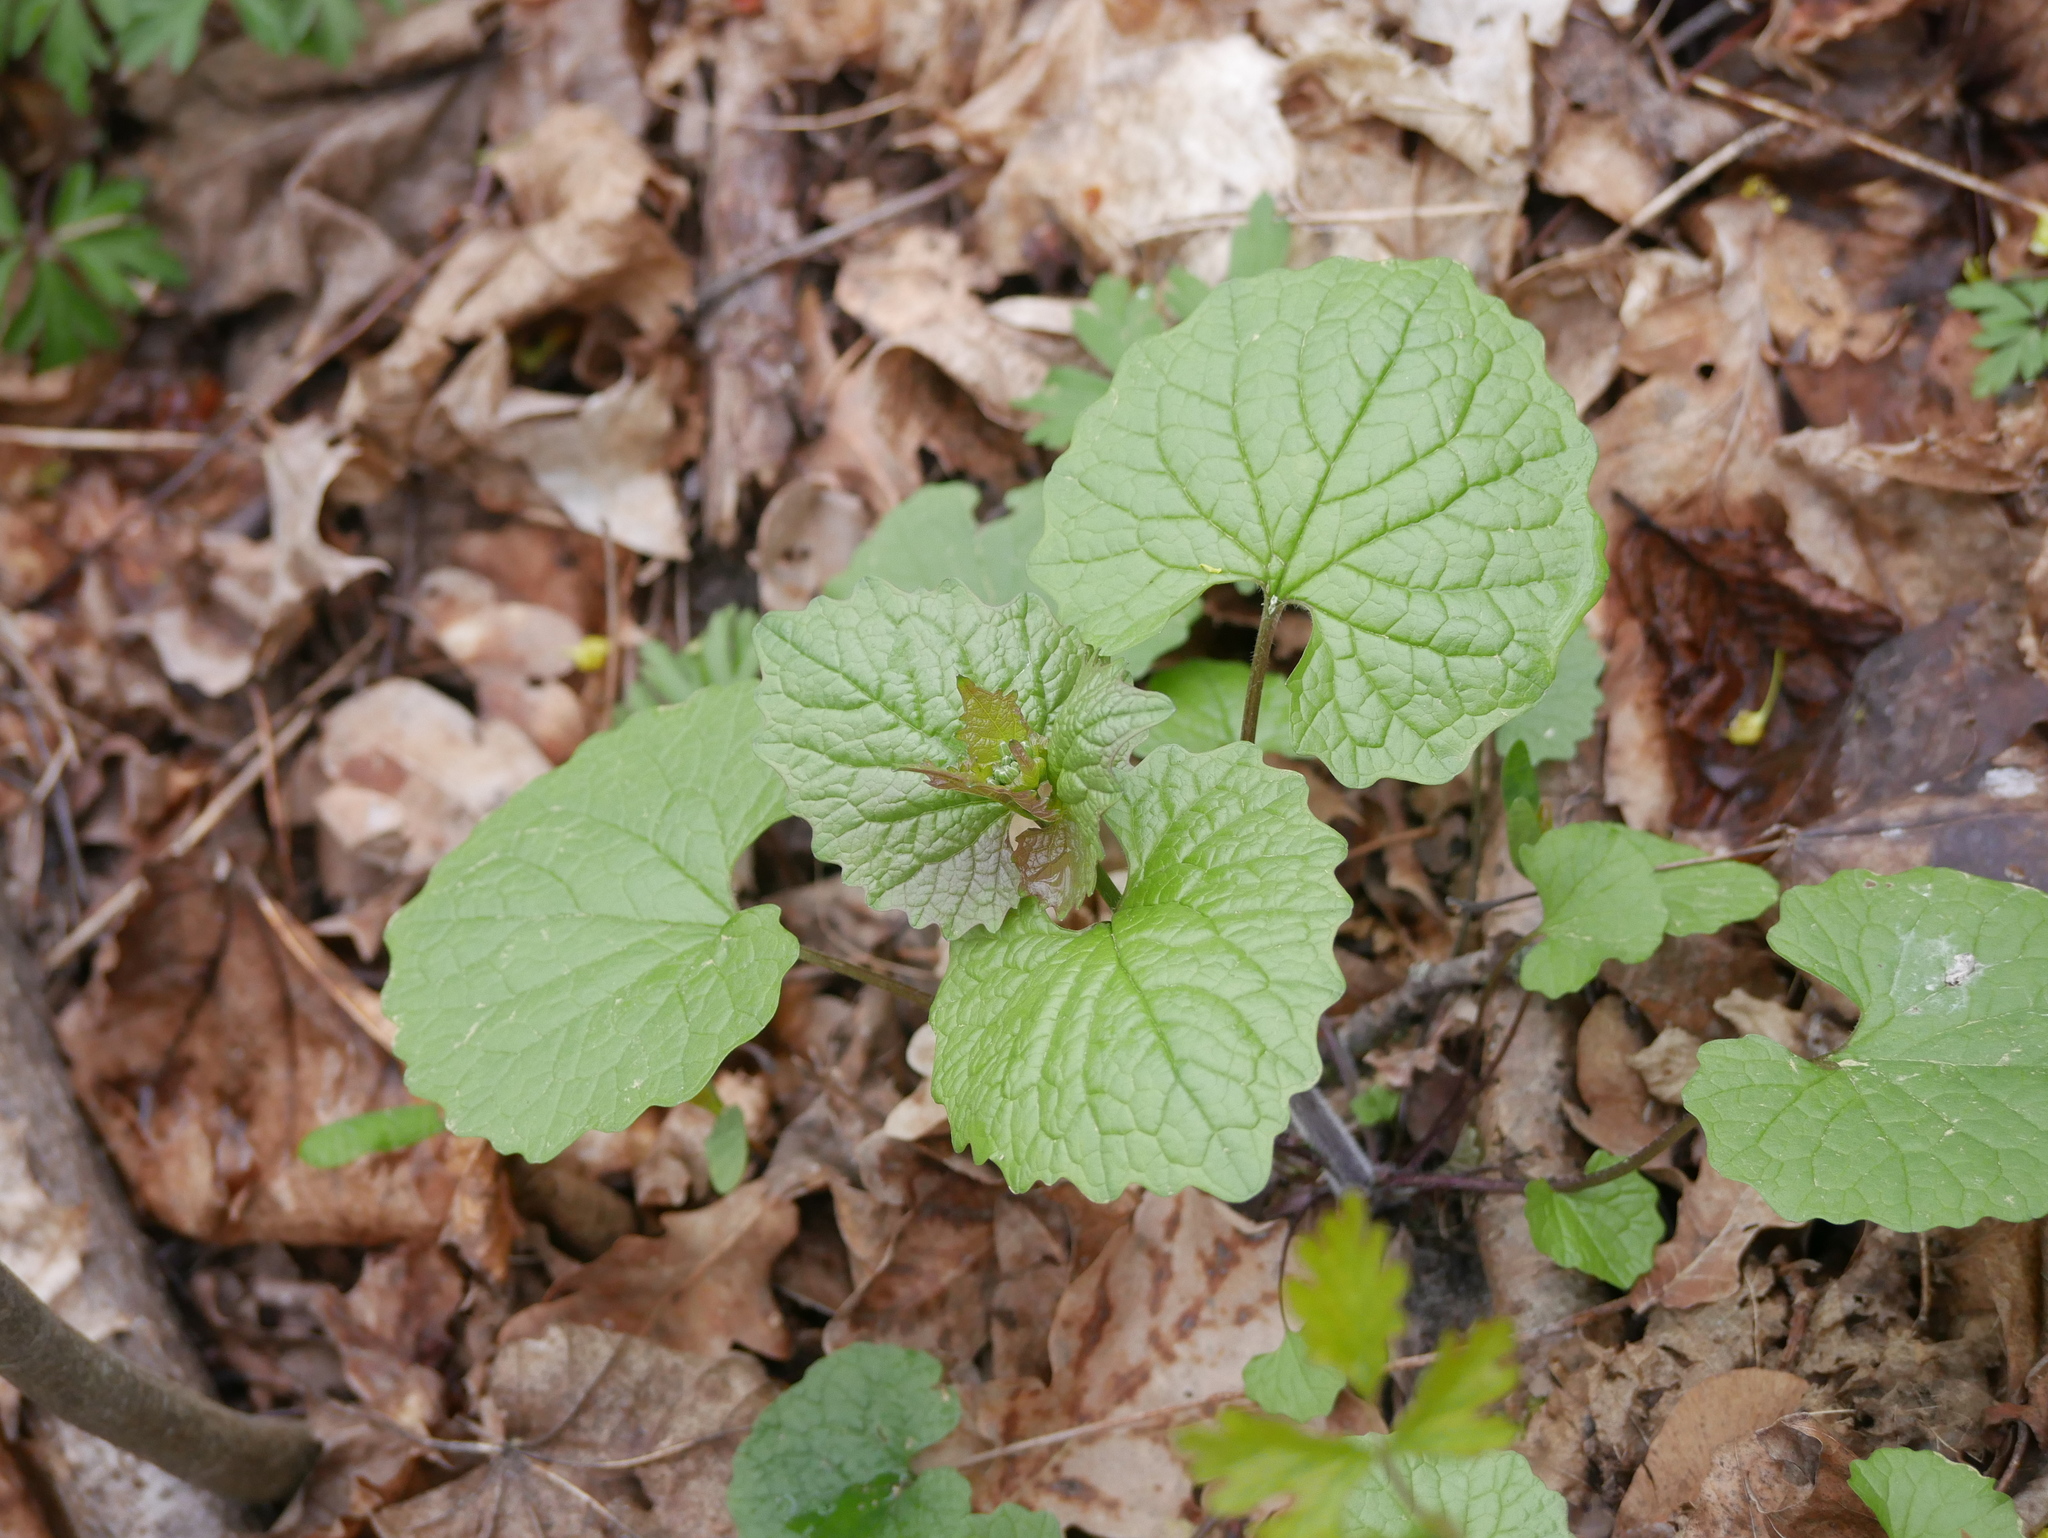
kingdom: Plantae
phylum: Tracheophyta
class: Magnoliopsida
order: Brassicales
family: Brassicaceae
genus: Alliaria
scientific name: Alliaria petiolata
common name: Garlic mustard
